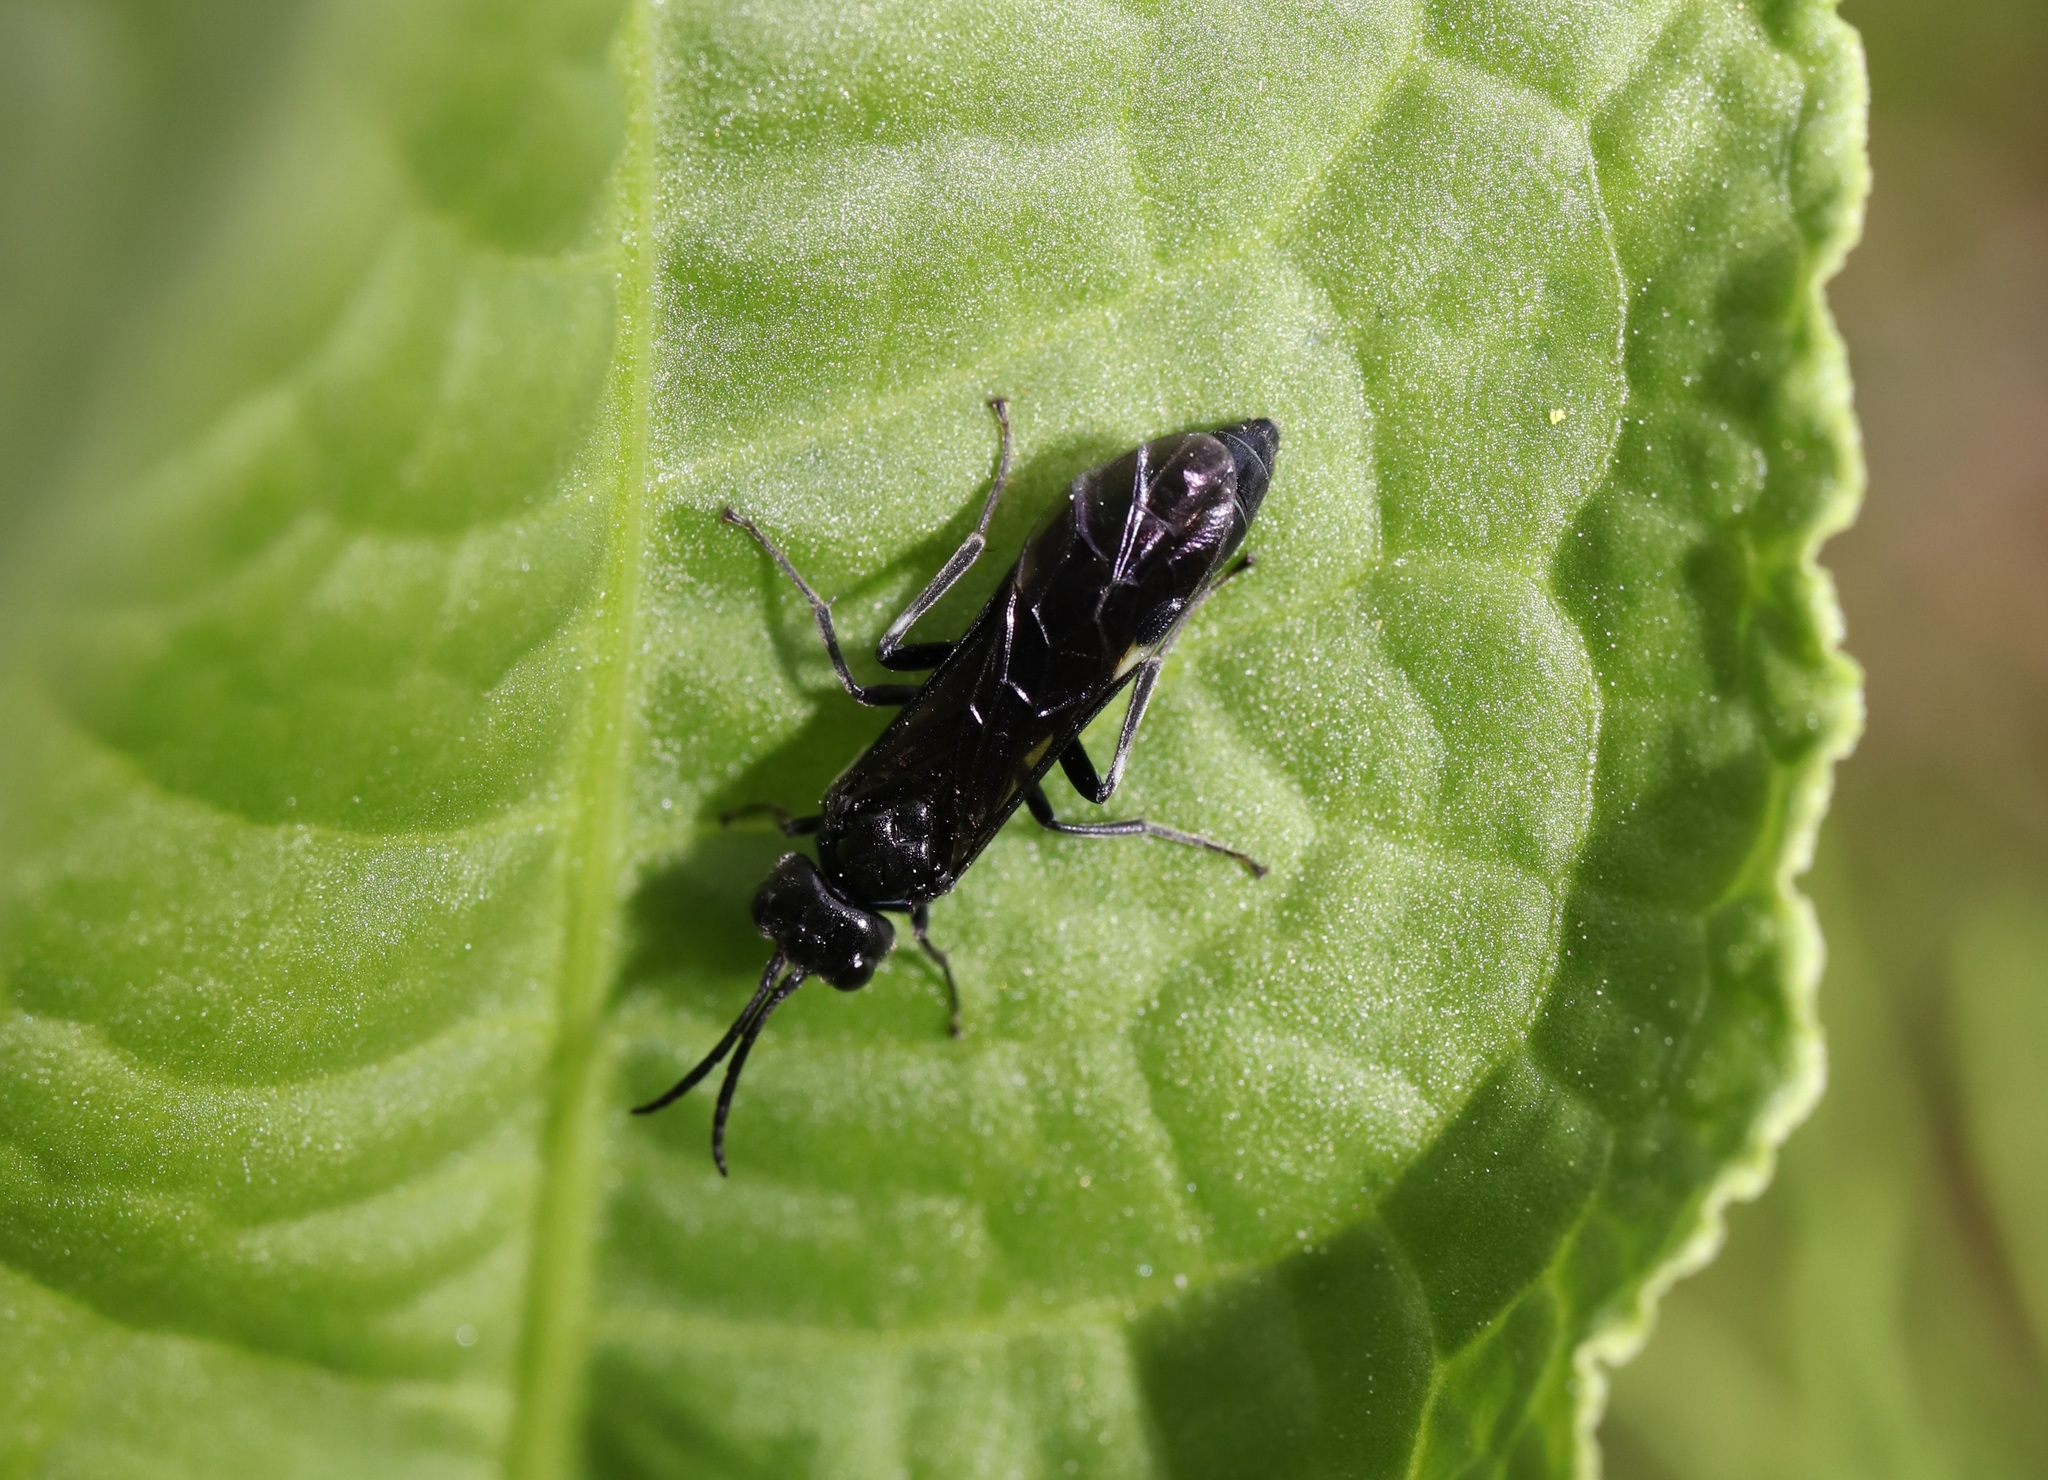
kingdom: Animalia
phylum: Arthropoda
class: Insecta
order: Hymenoptera
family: Tenthredinidae
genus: Allantus
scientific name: Allantus luctifer
